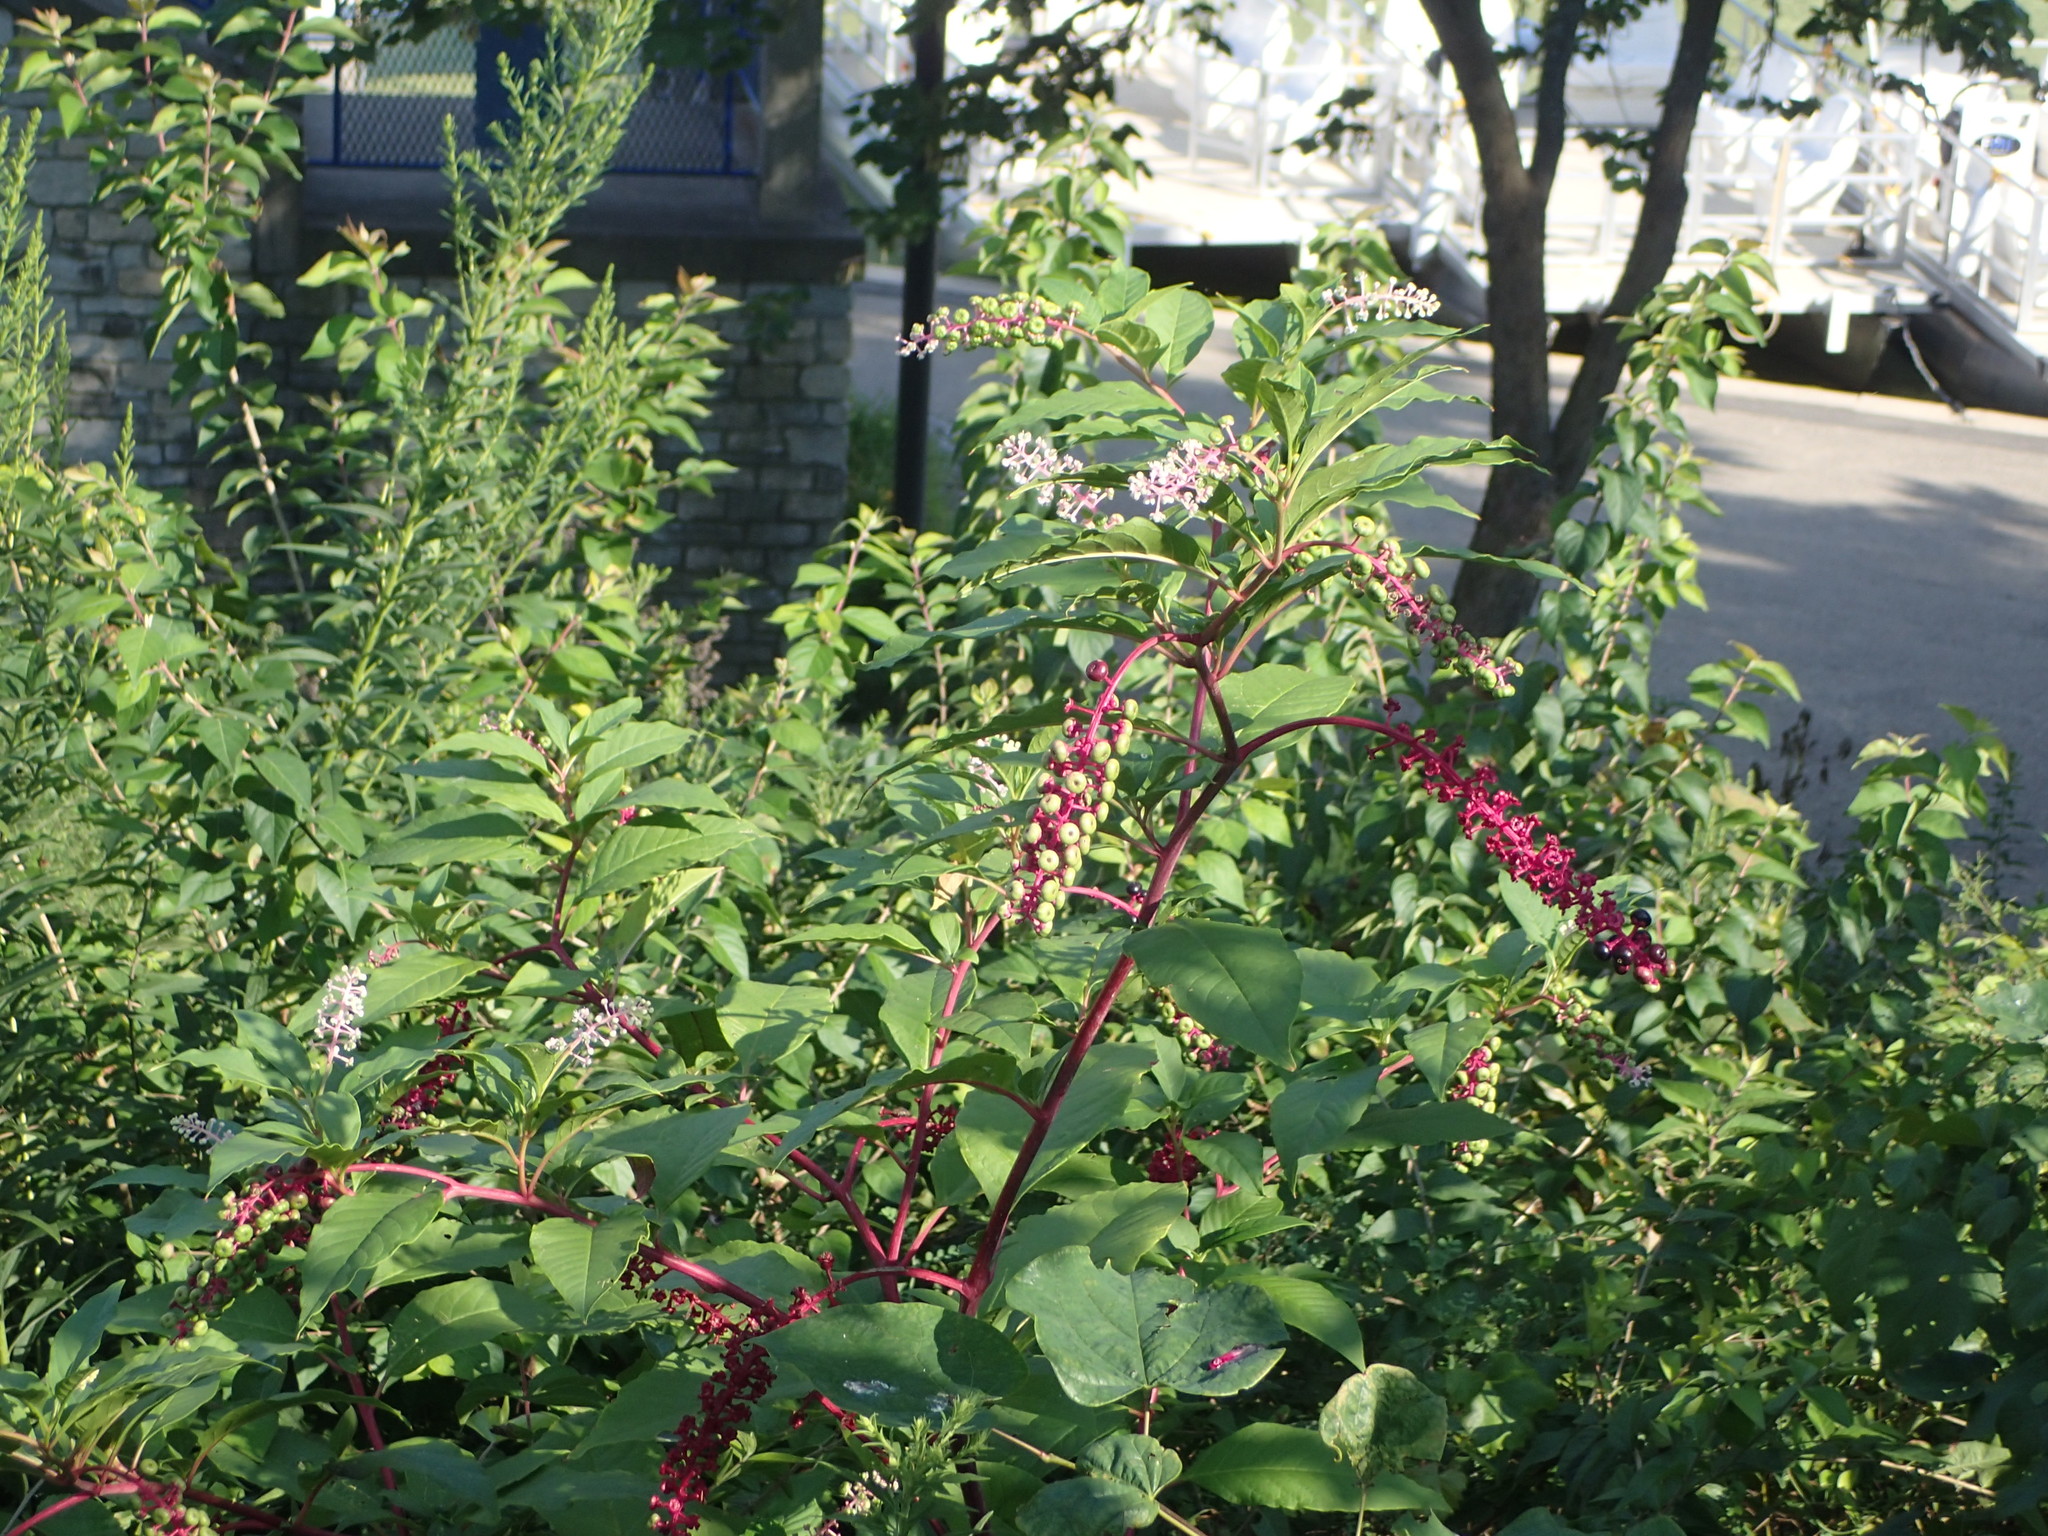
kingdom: Plantae
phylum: Tracheophyta
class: Magnoliopsida
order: Caryophyllales
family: Phytolaccaceae
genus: Phytolacca
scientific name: Phytolacca americana
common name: American pokeweed
